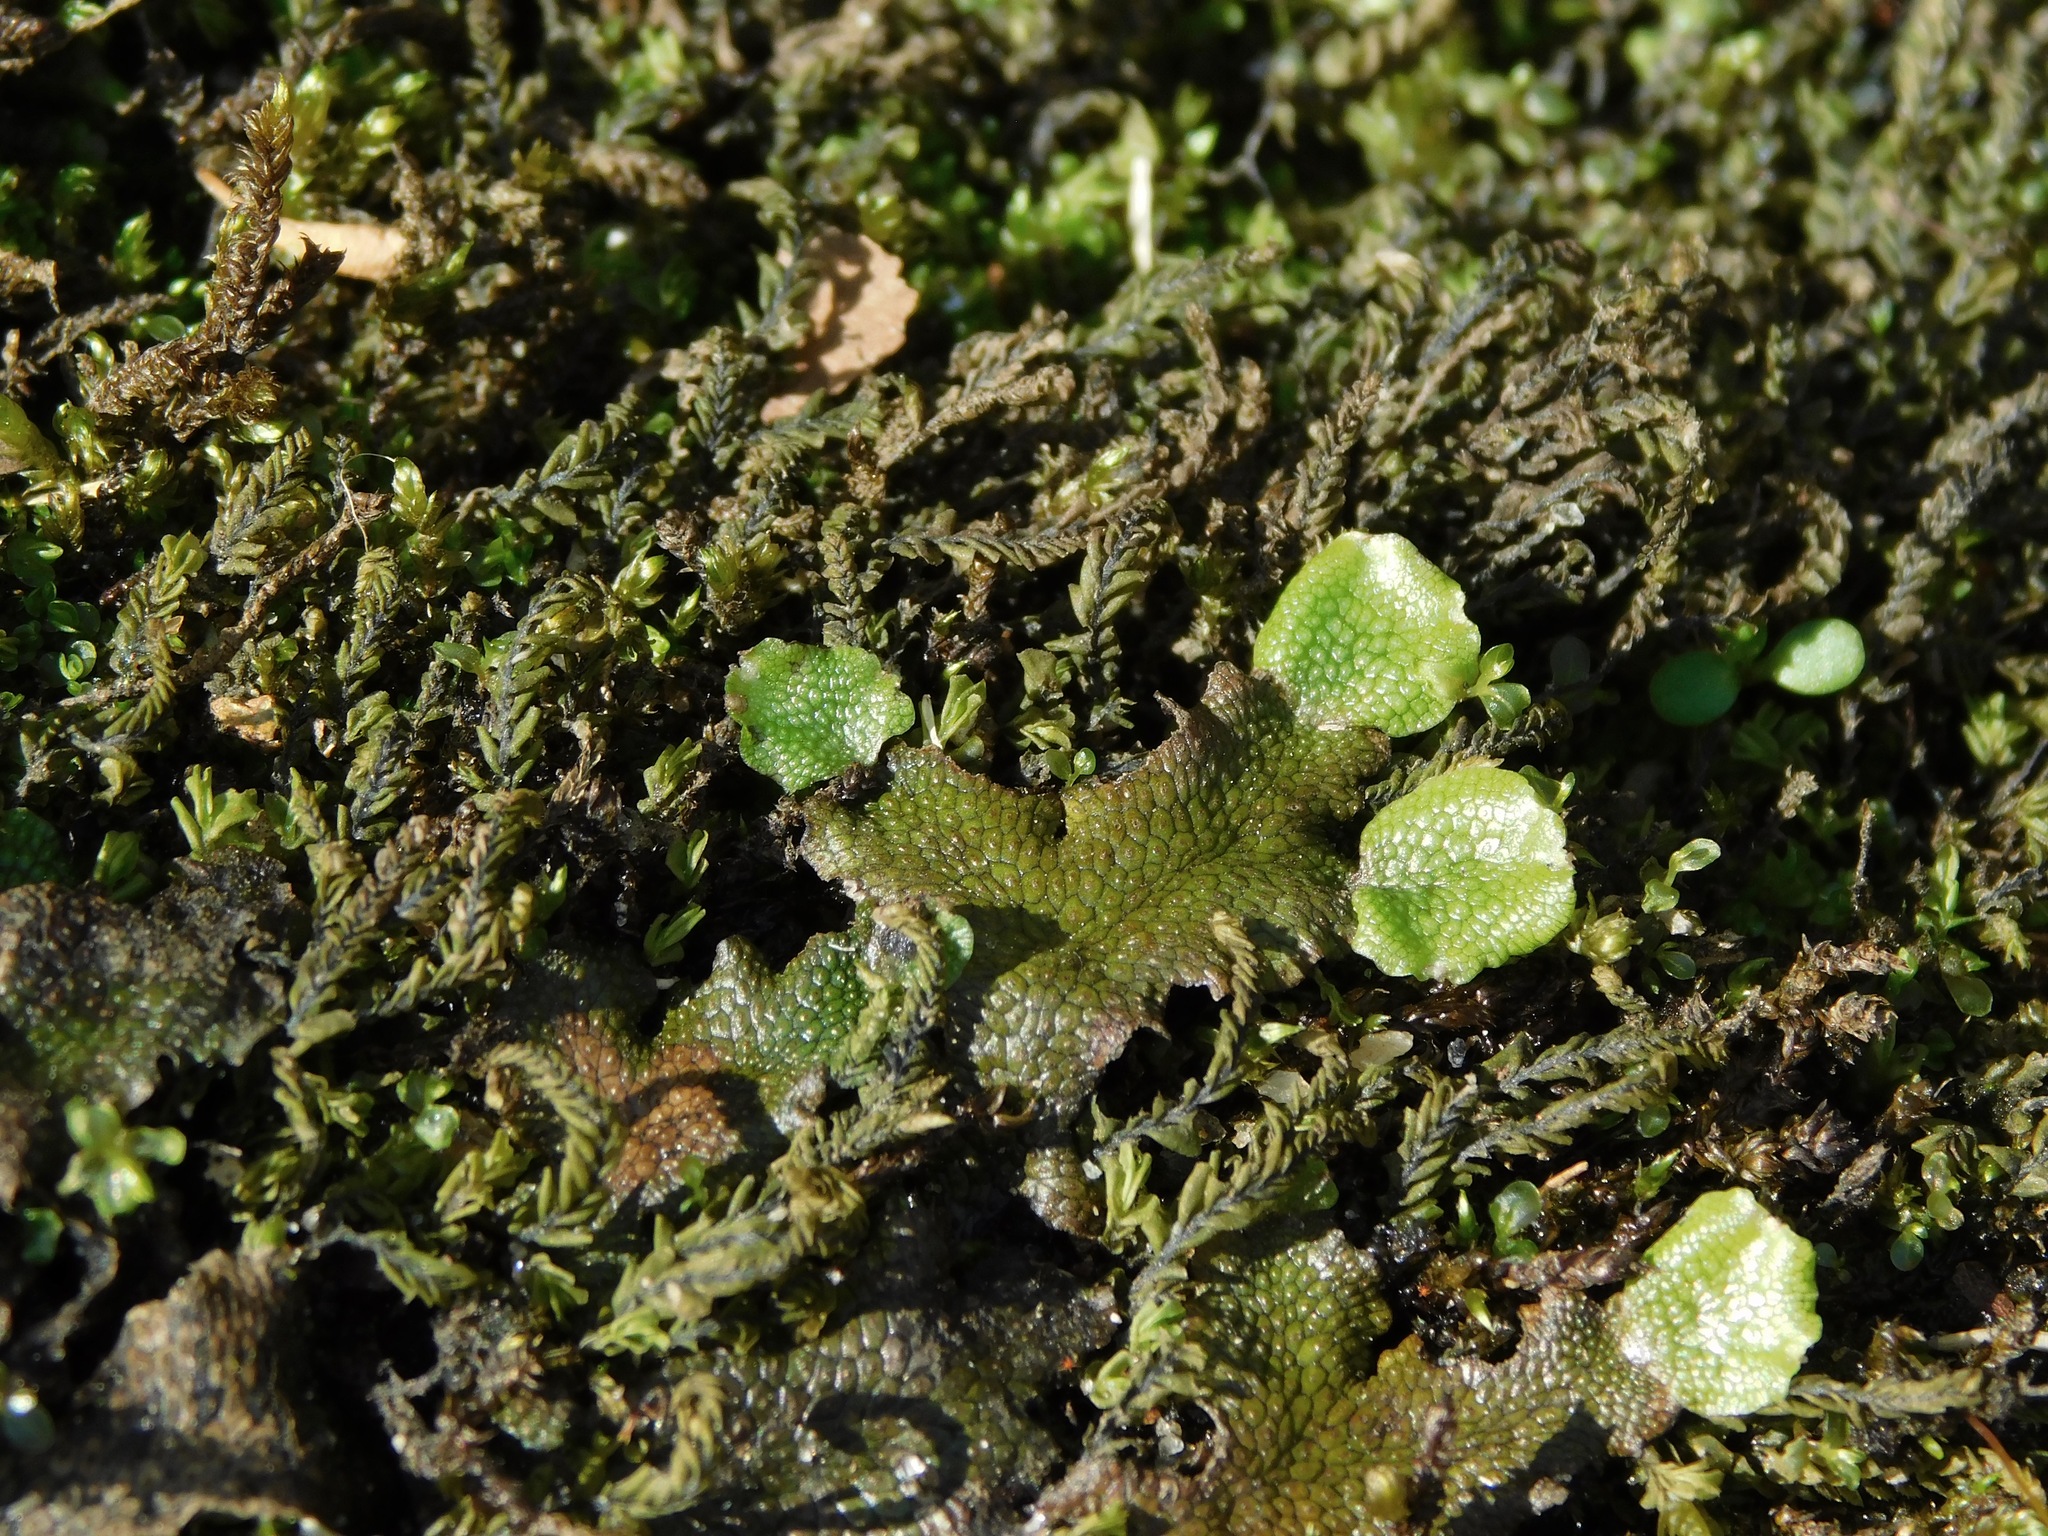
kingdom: Plantae
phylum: Marchantiophyta
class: Marchantiopsida
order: Marchantiales
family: Conocephalaceae
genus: Conocephalum
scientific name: Conocephalum salebrosum
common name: Cat-tongue liverwort
